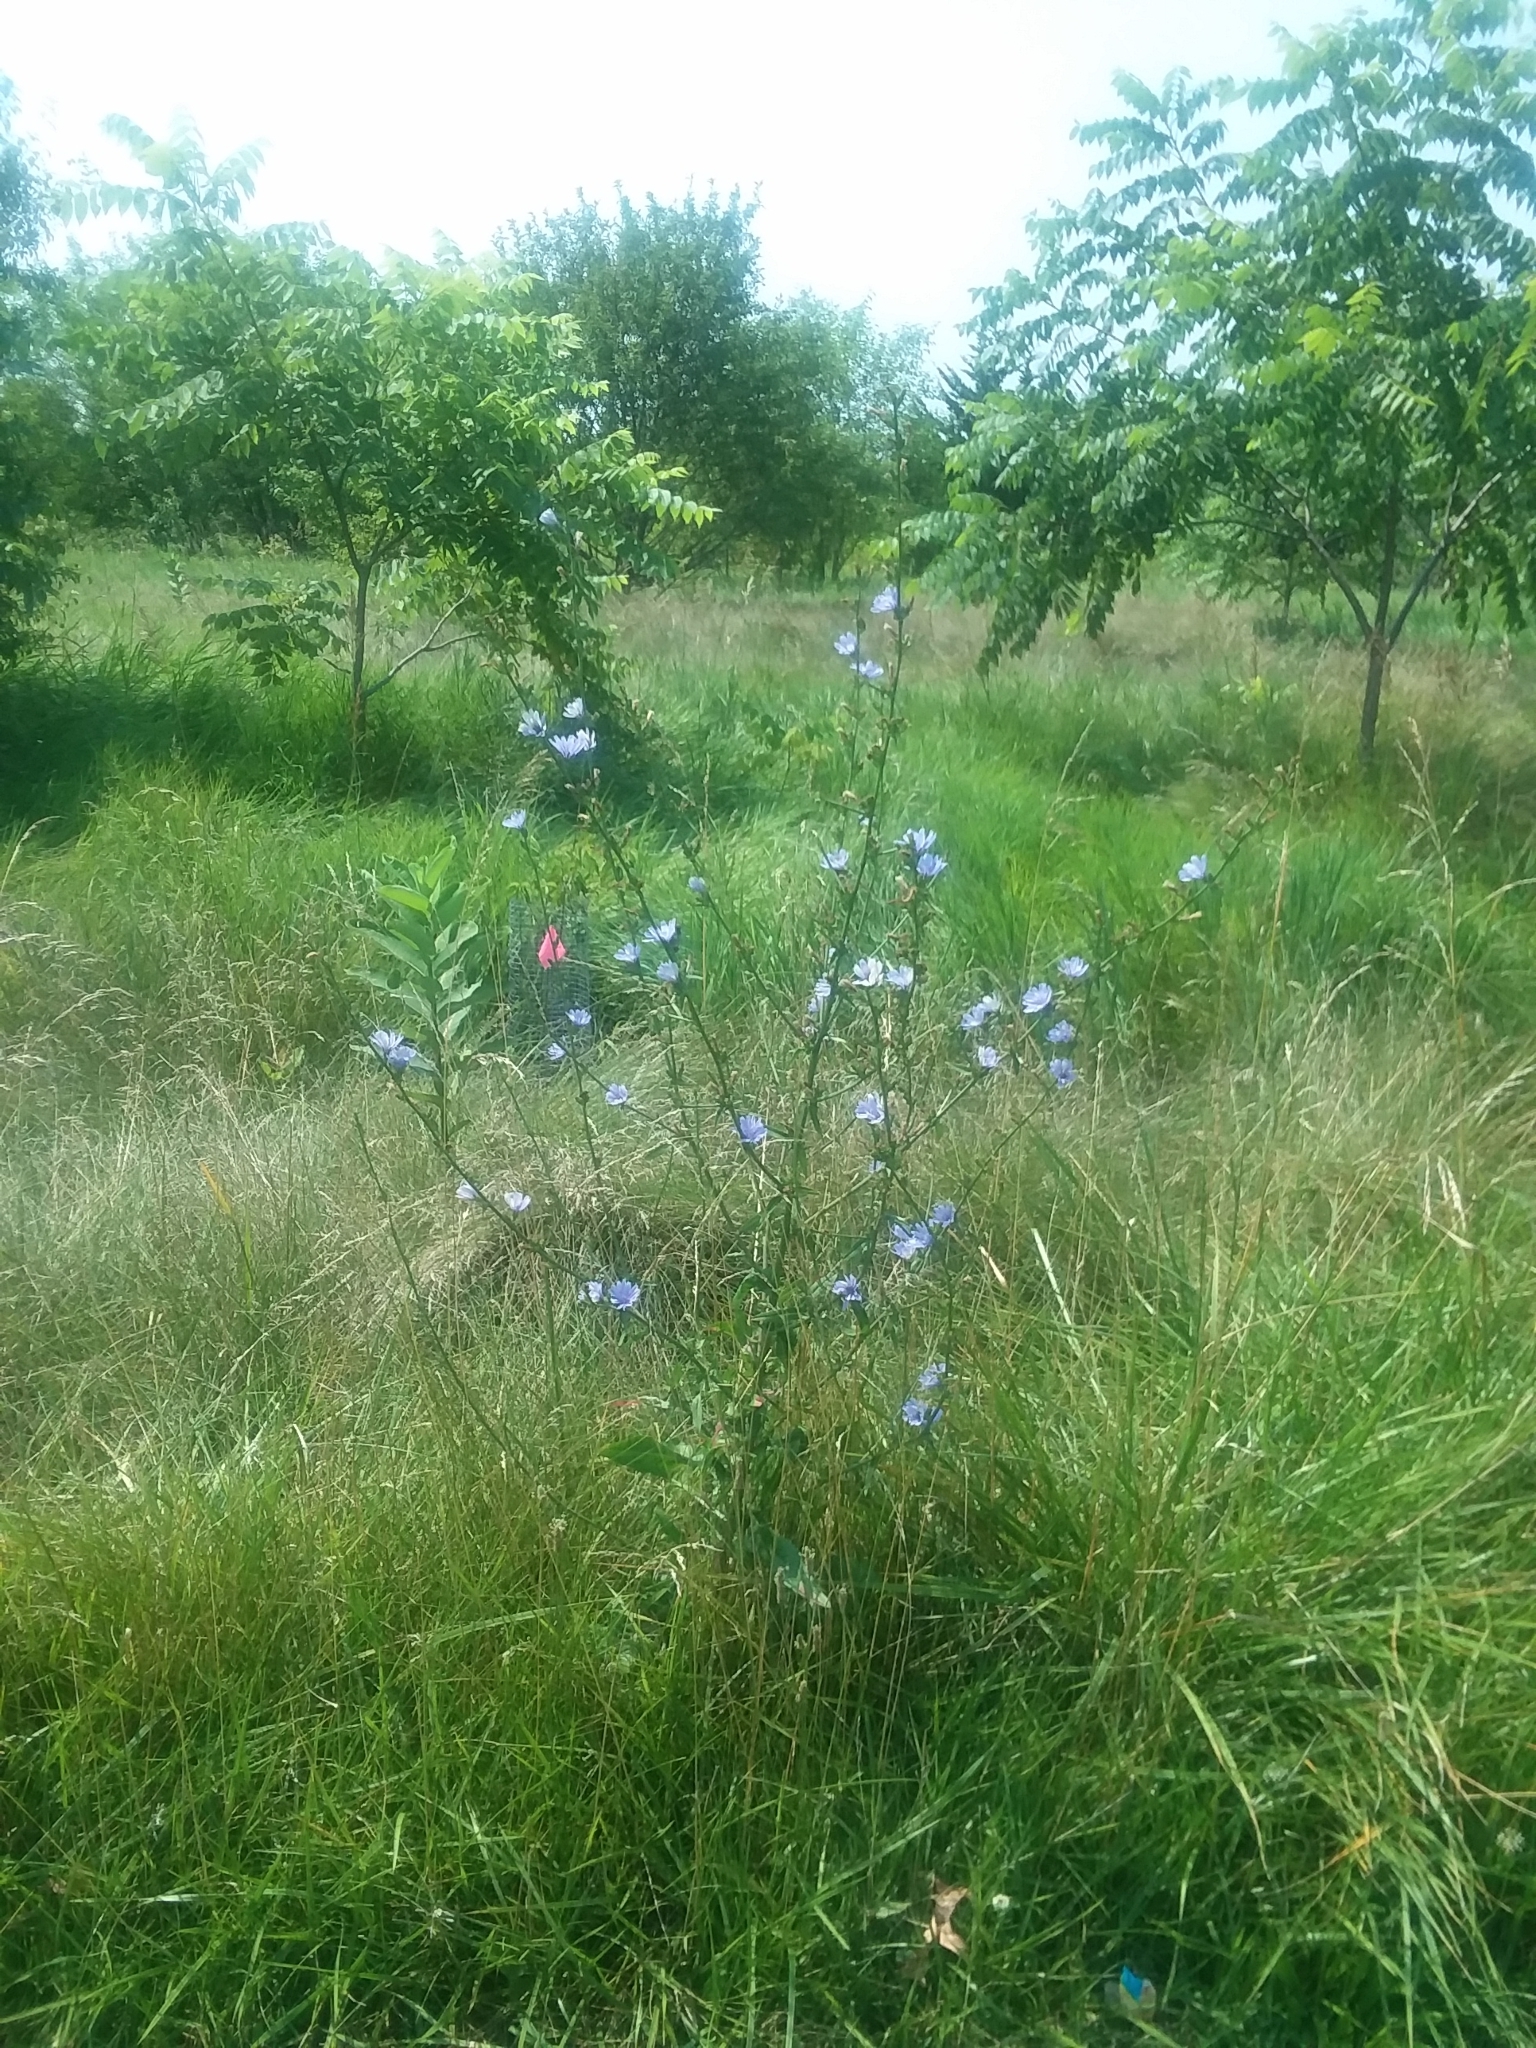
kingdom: Plantae
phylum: Tracheophyta
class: Magnoliopsida
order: Asterales
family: Asteraceae
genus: Cichorium
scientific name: Cichorium intybus
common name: Chicory
